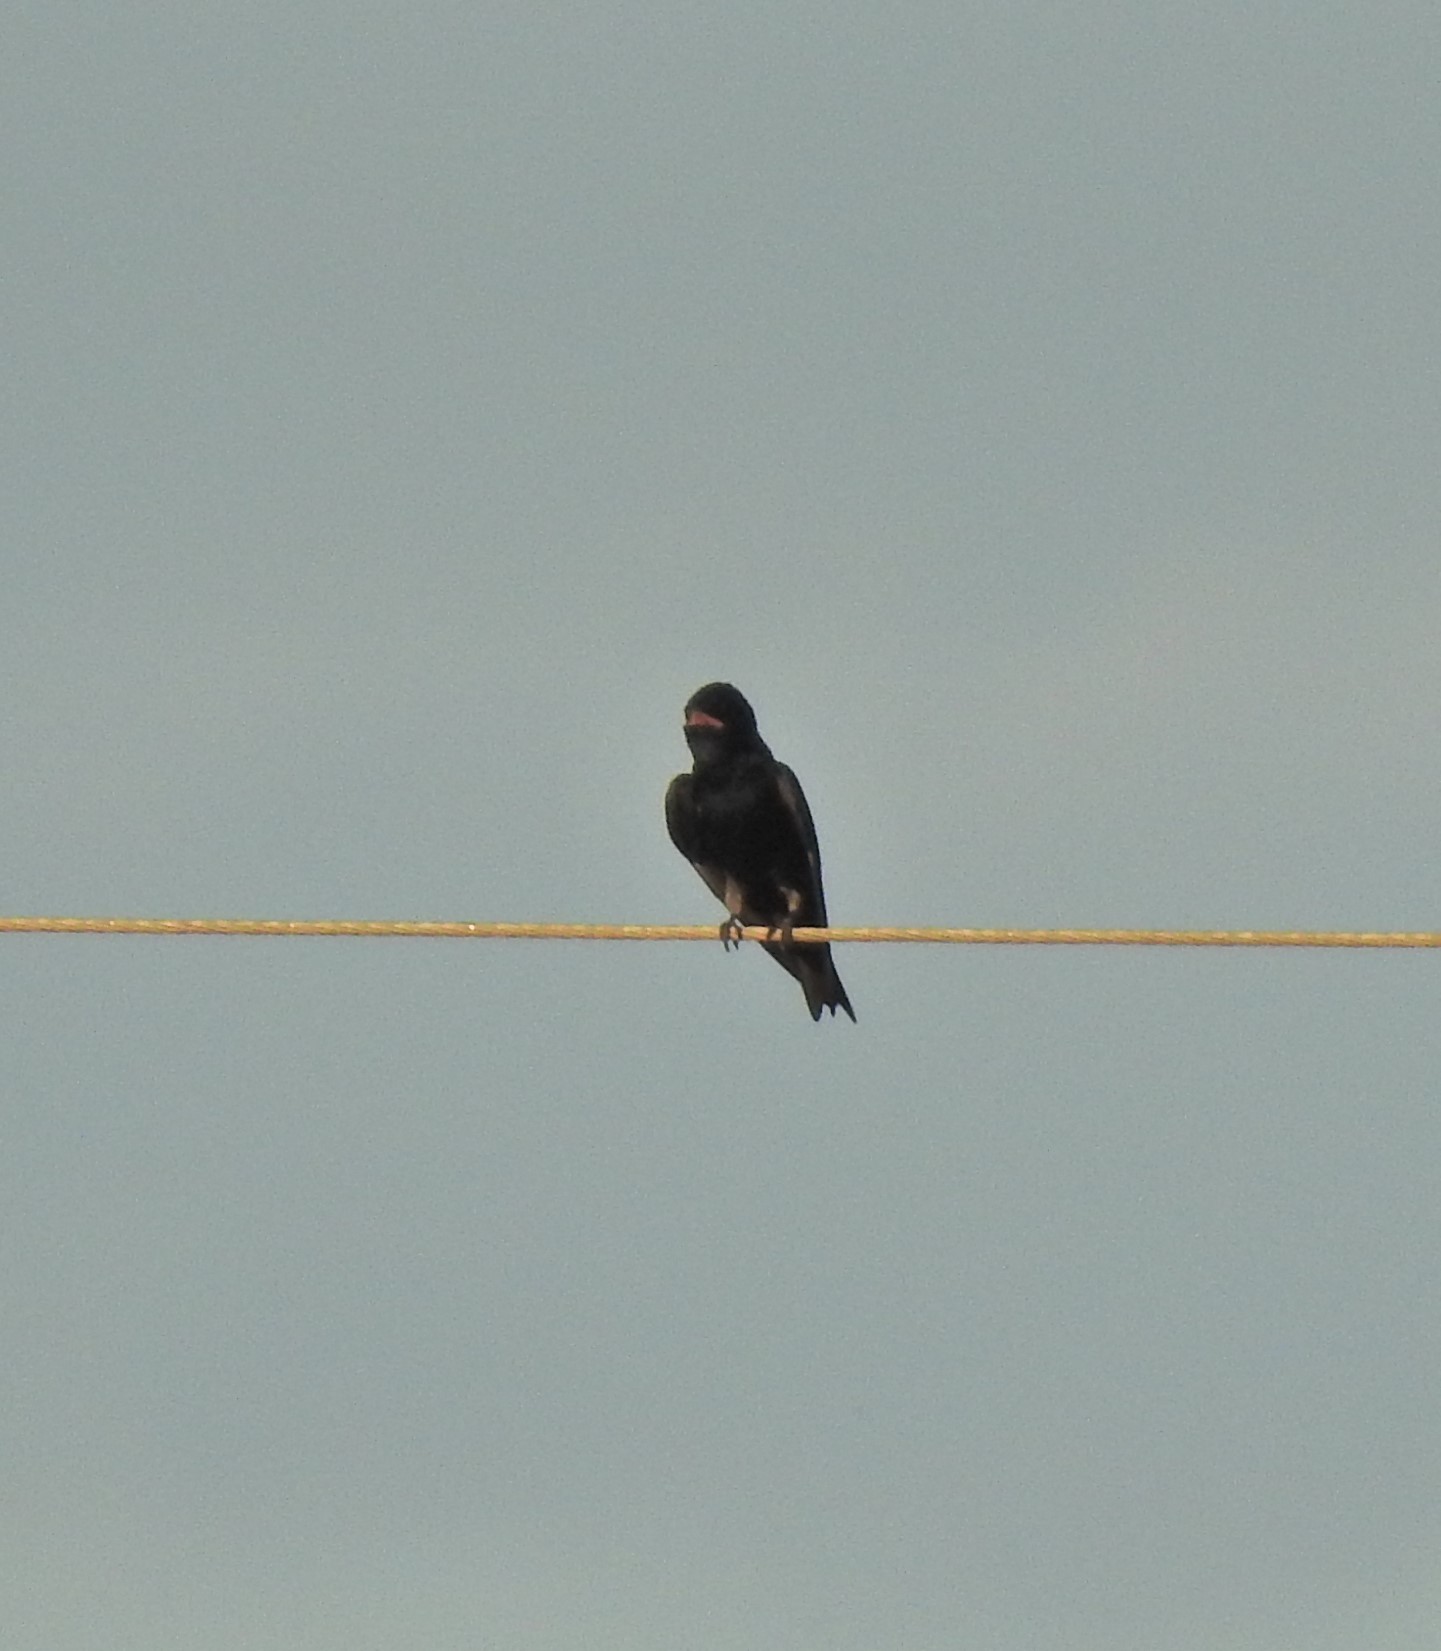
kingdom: Animalia
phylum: Chordata
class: Aves
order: Passeriformes
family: Hirundinidae
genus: Progne
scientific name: Progne subis
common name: Purple martin
